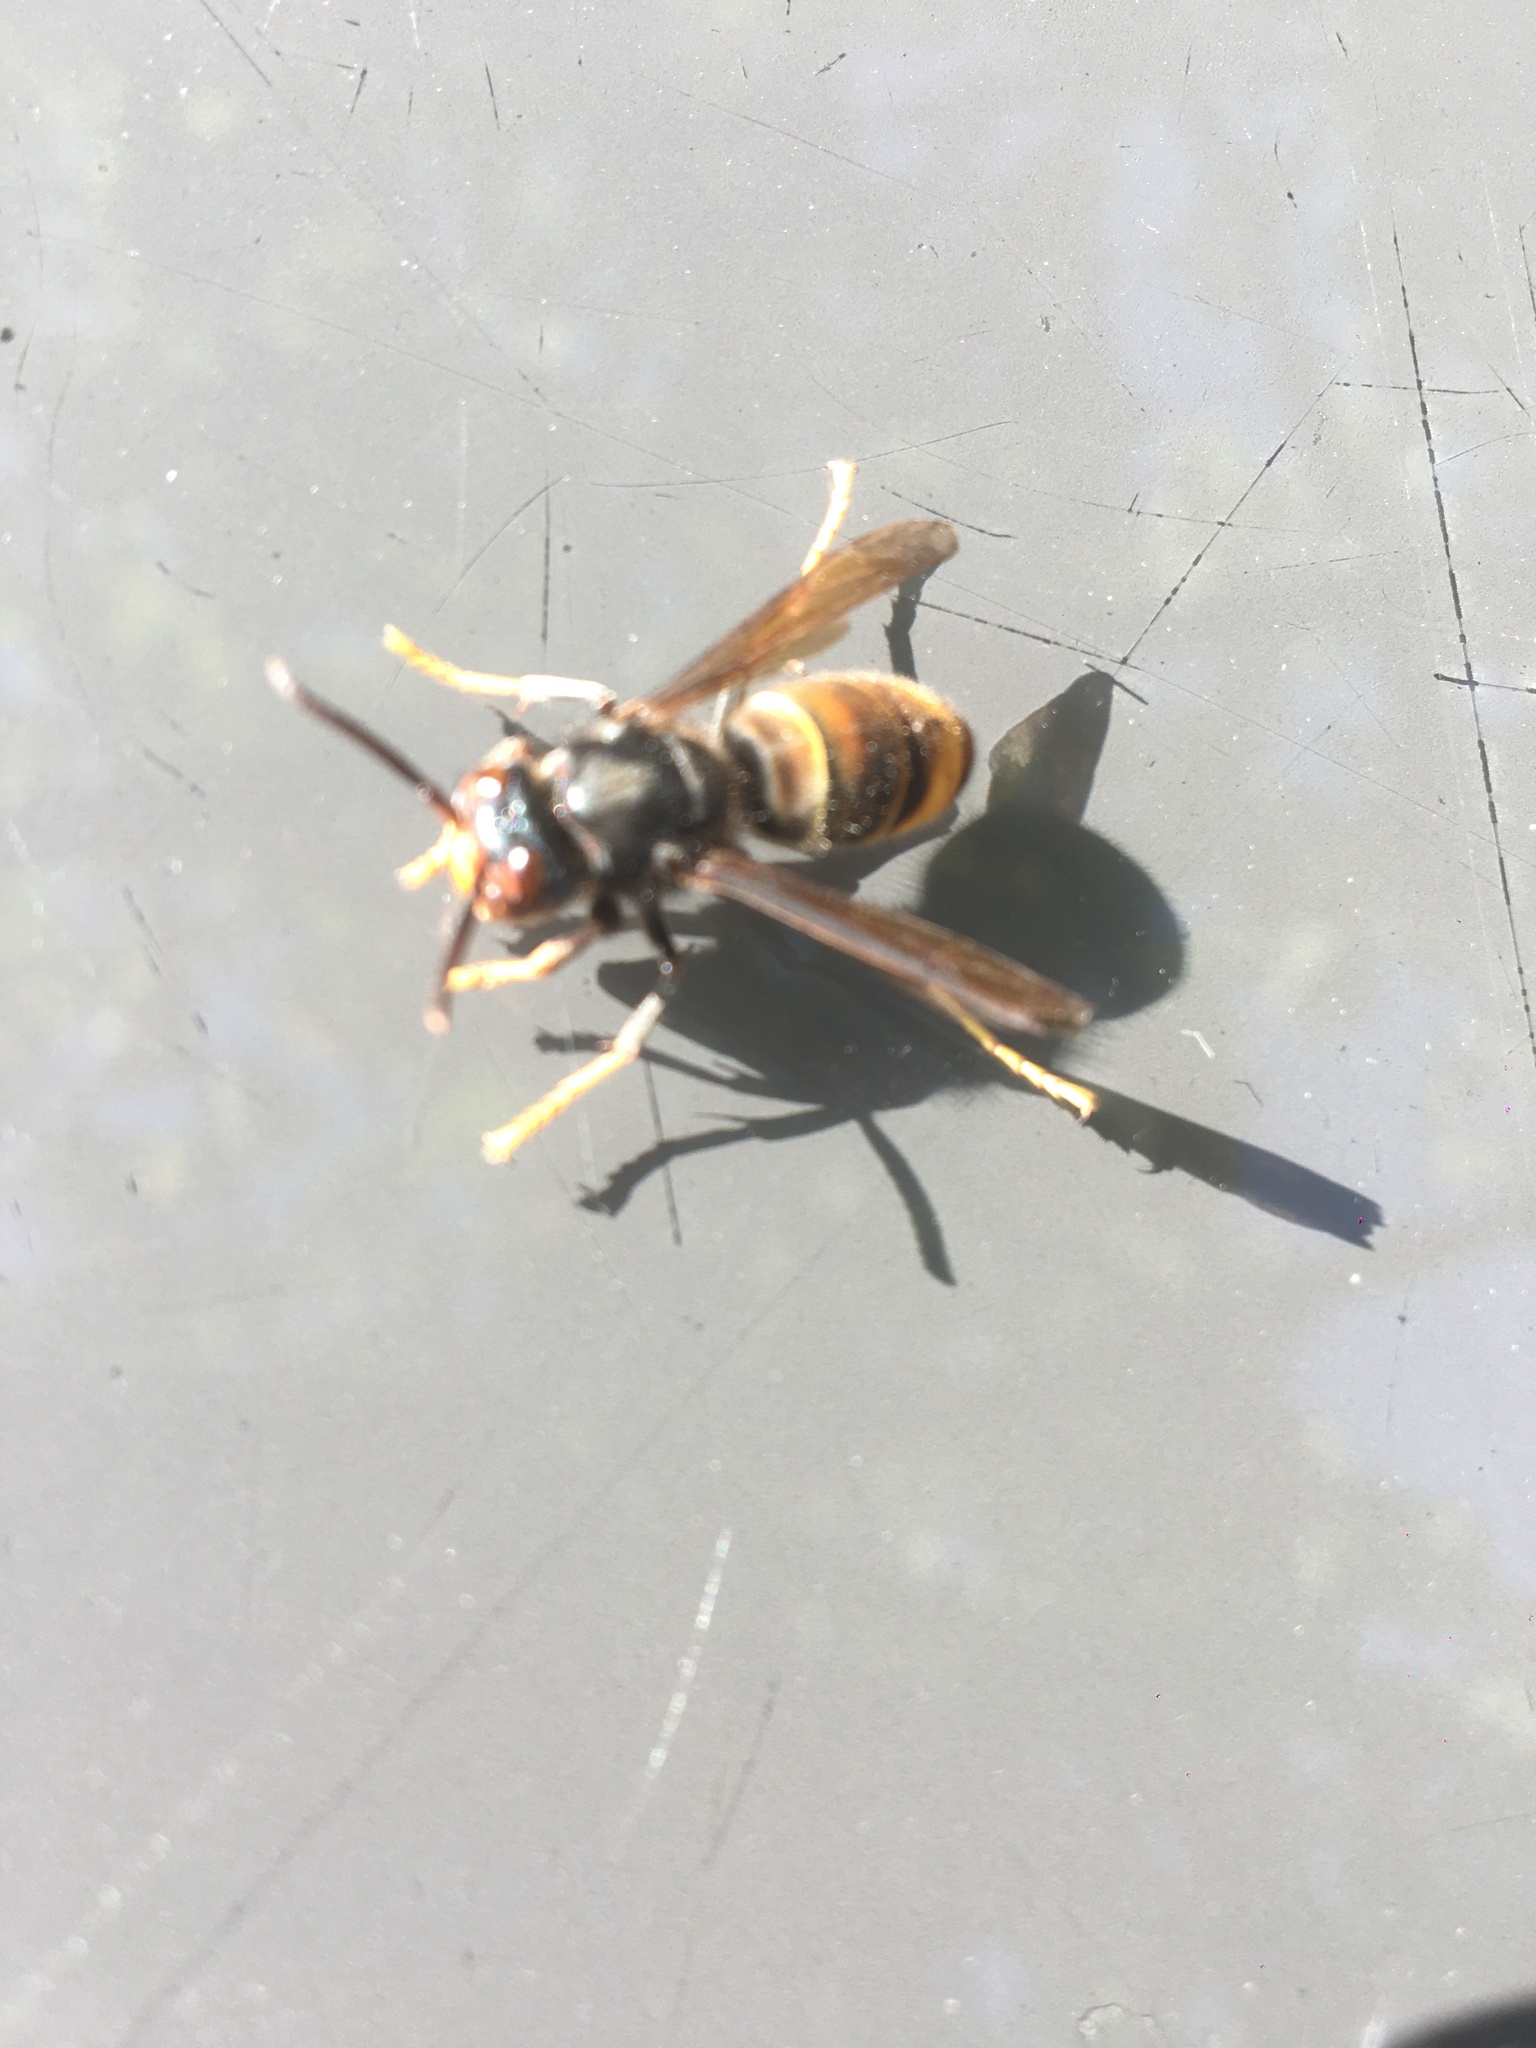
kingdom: Animalia
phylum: Arthropoda
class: Insecta
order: Hymenoptera
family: Vespidae
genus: Vespa
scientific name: Vespa velutina
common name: Asian hornet
